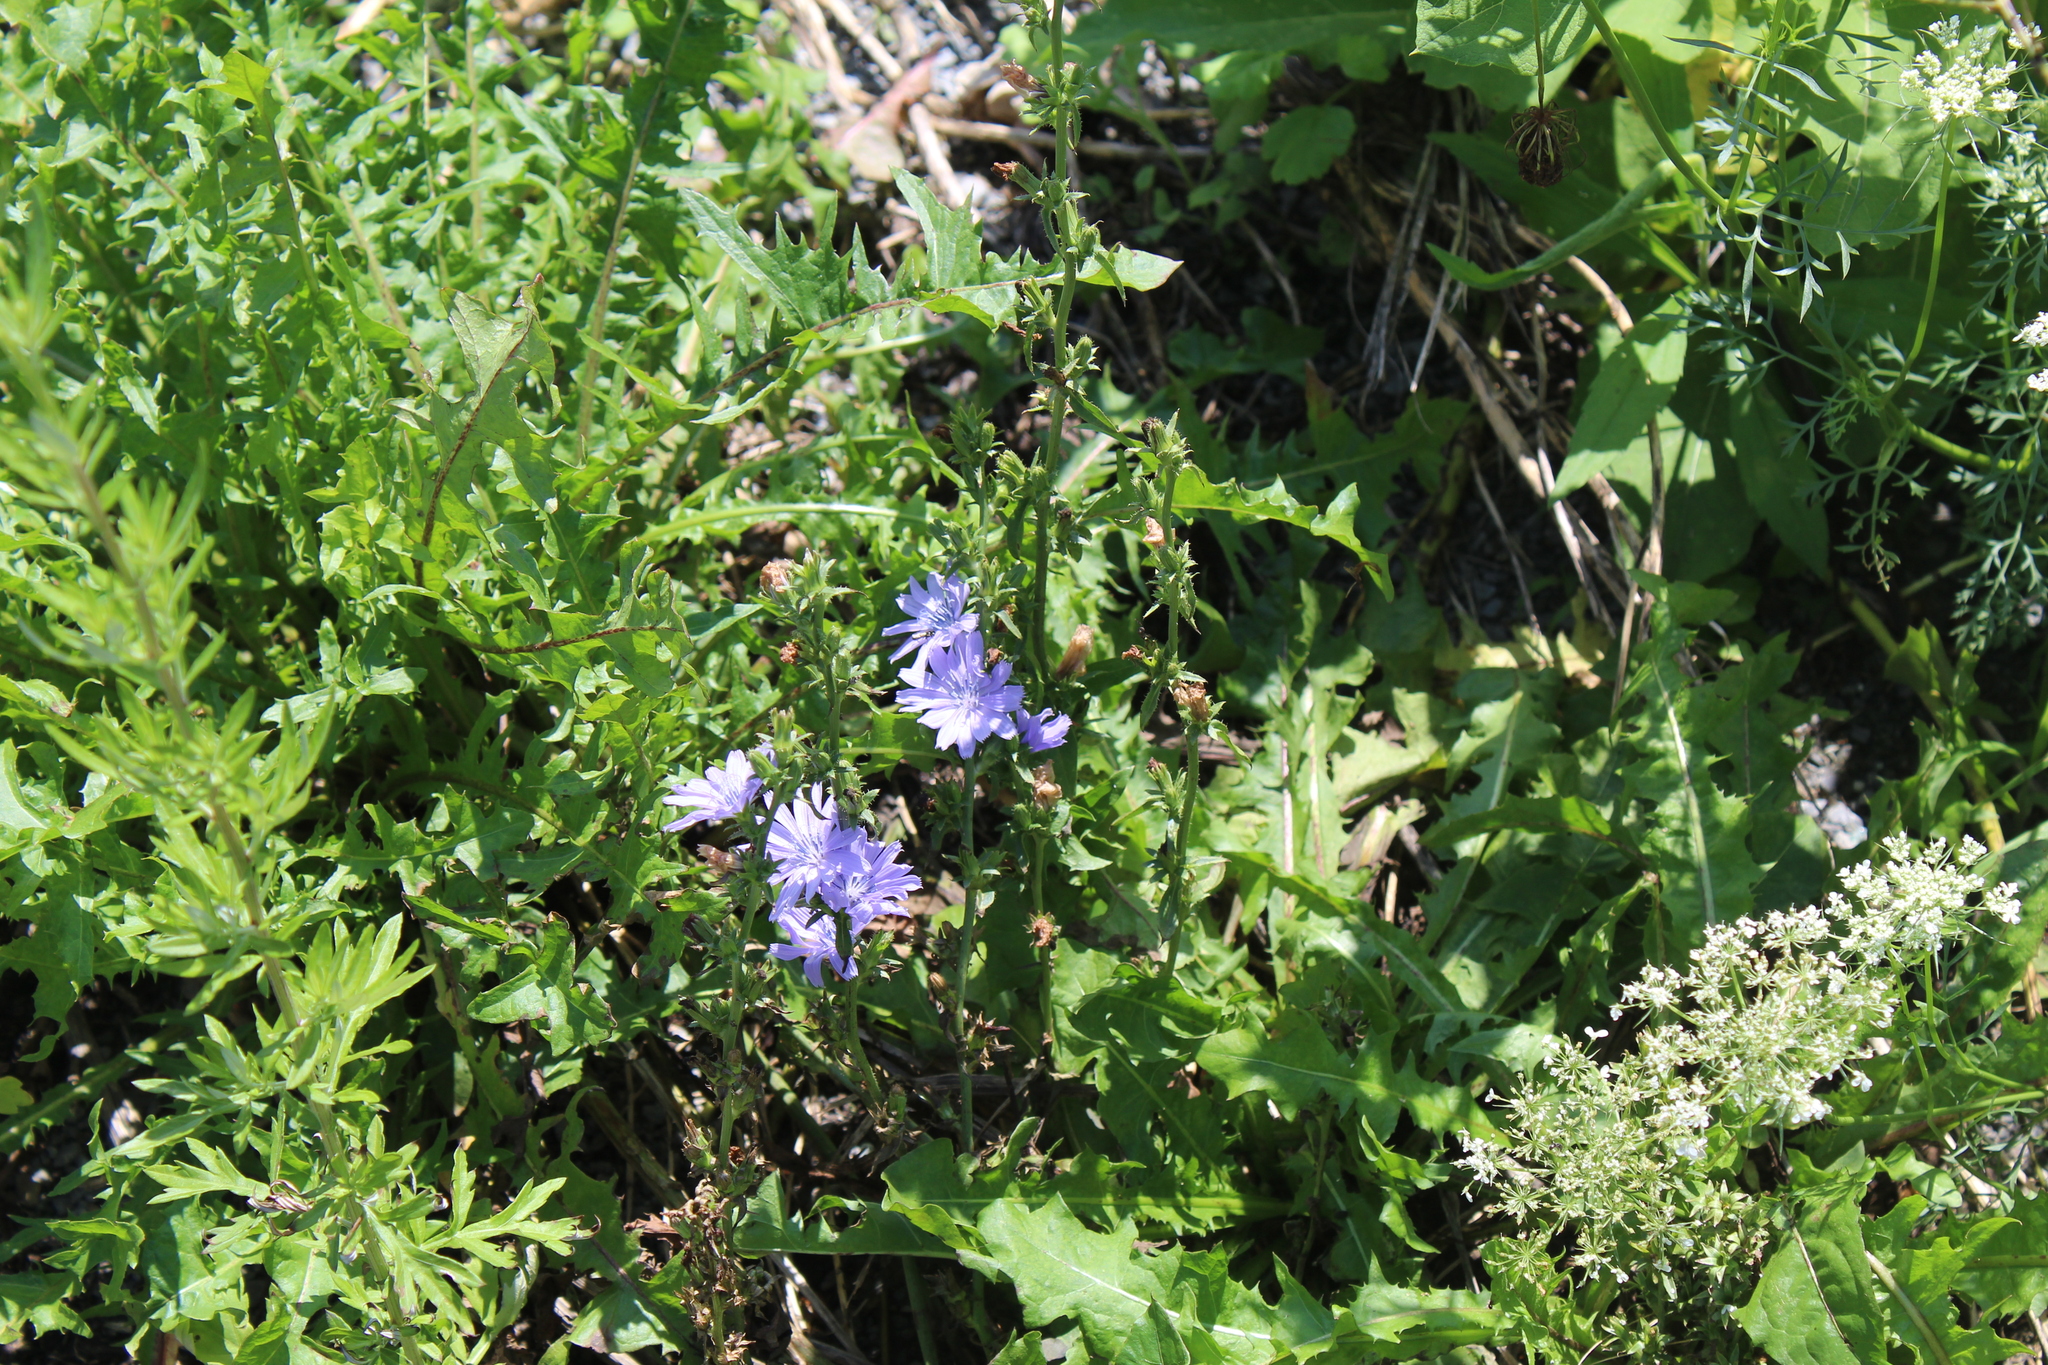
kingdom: Plantae
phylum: Tracheophyta
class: Magnoliopsida
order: Asterales
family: Asteraceae
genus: Cichorium
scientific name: Cichorium intybus
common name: Chicory
